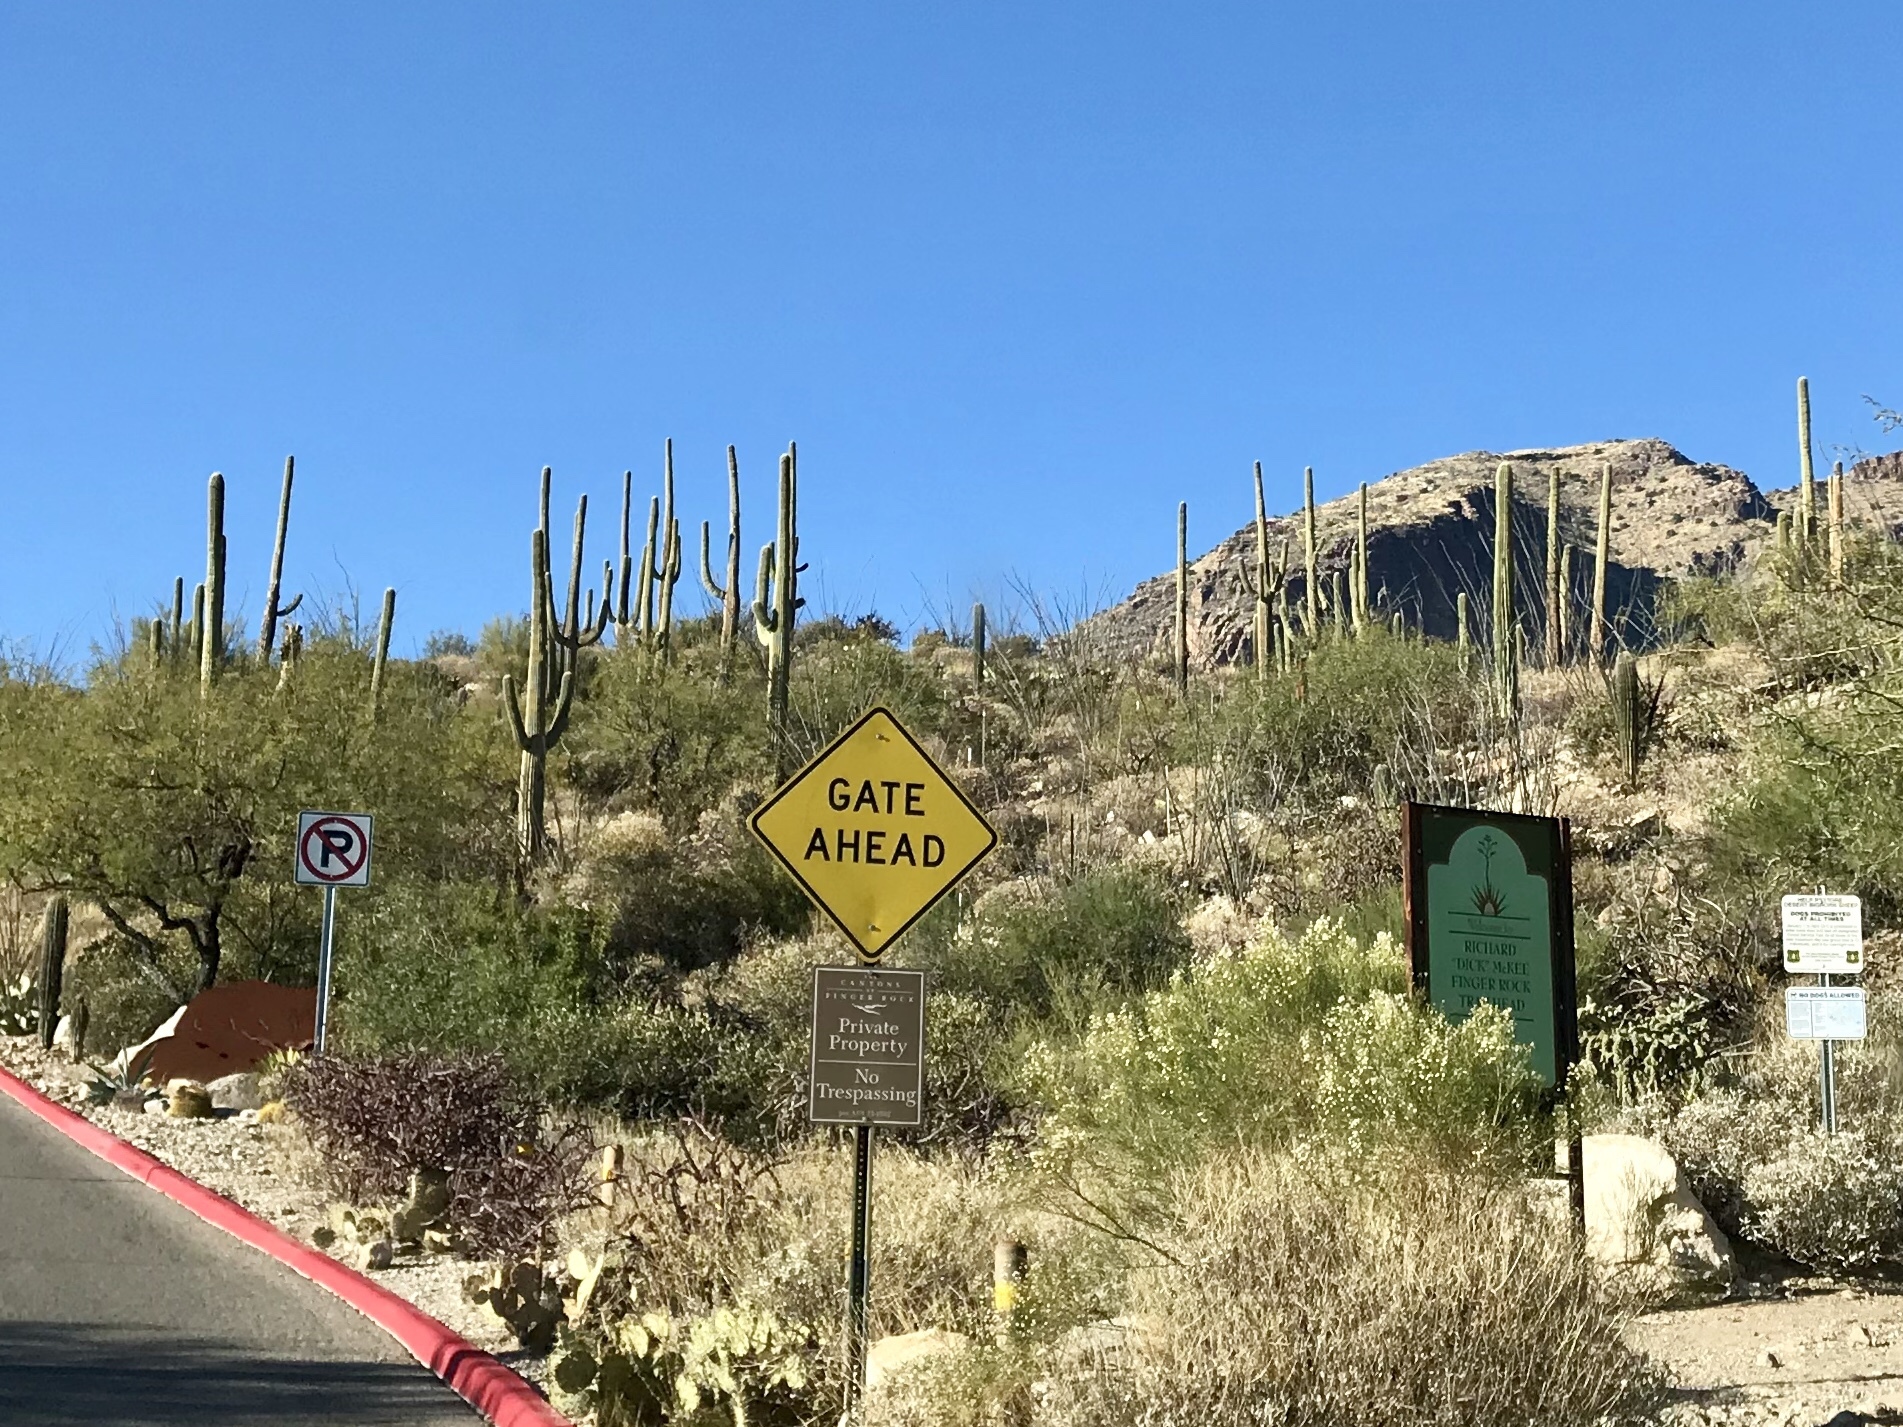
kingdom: Plantae
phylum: Tracheophyta
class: Magnoliopsida
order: Caryophyllales
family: Cactaceae
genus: Carnegiea
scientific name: Carnegiea gigantea
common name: Saguaro
